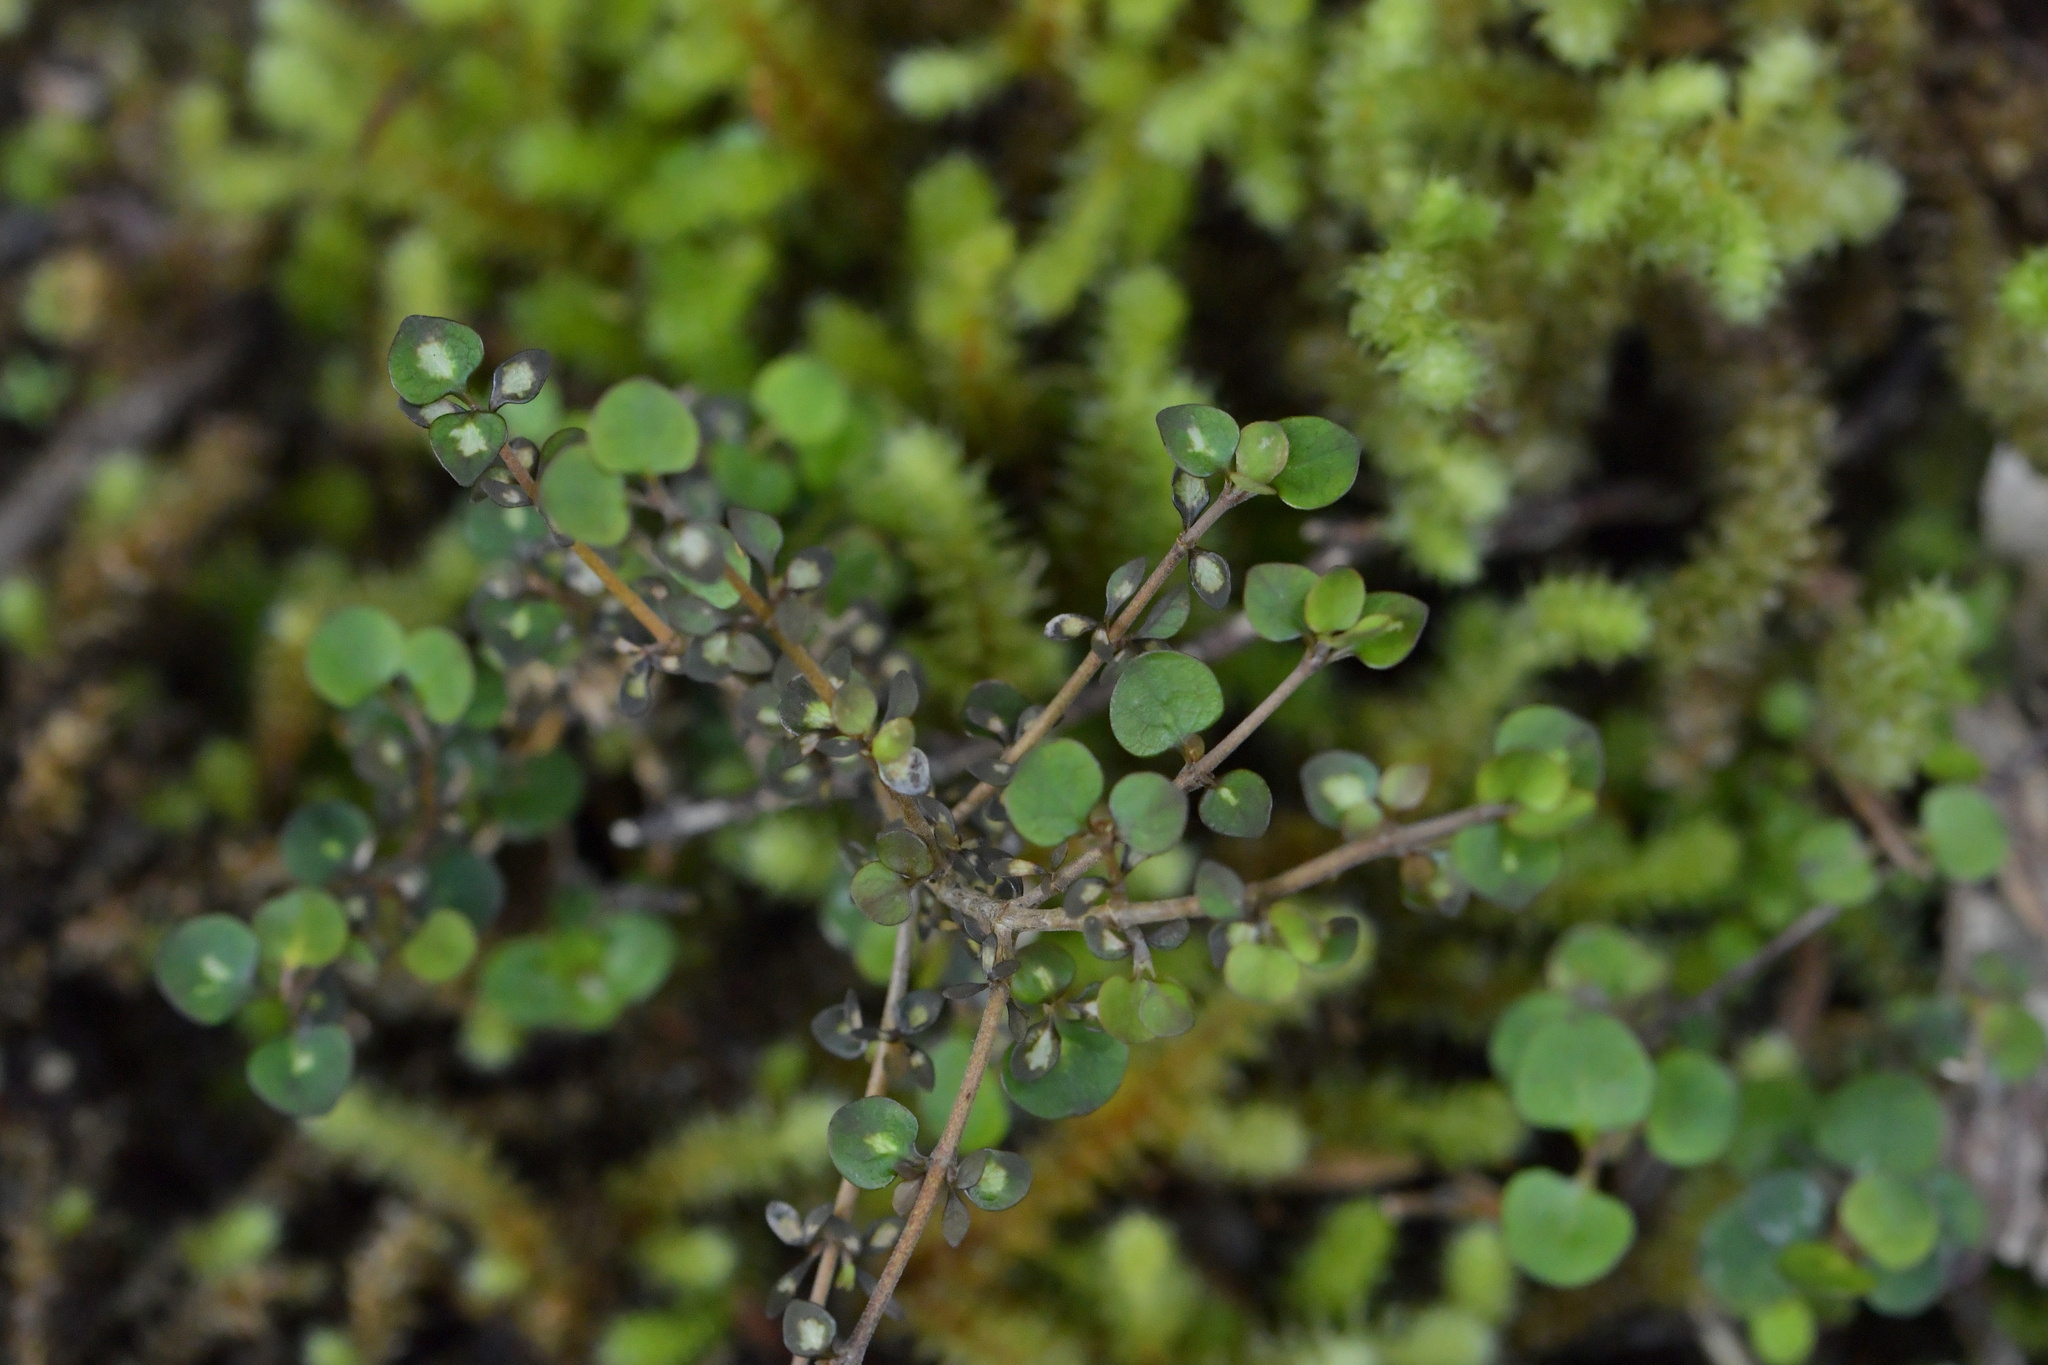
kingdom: Plantae
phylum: Tracheophyta
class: Magnoliopsida
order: Gentianales
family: Rubiaceae
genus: Coprosma
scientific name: Coprosma rhamnoides
